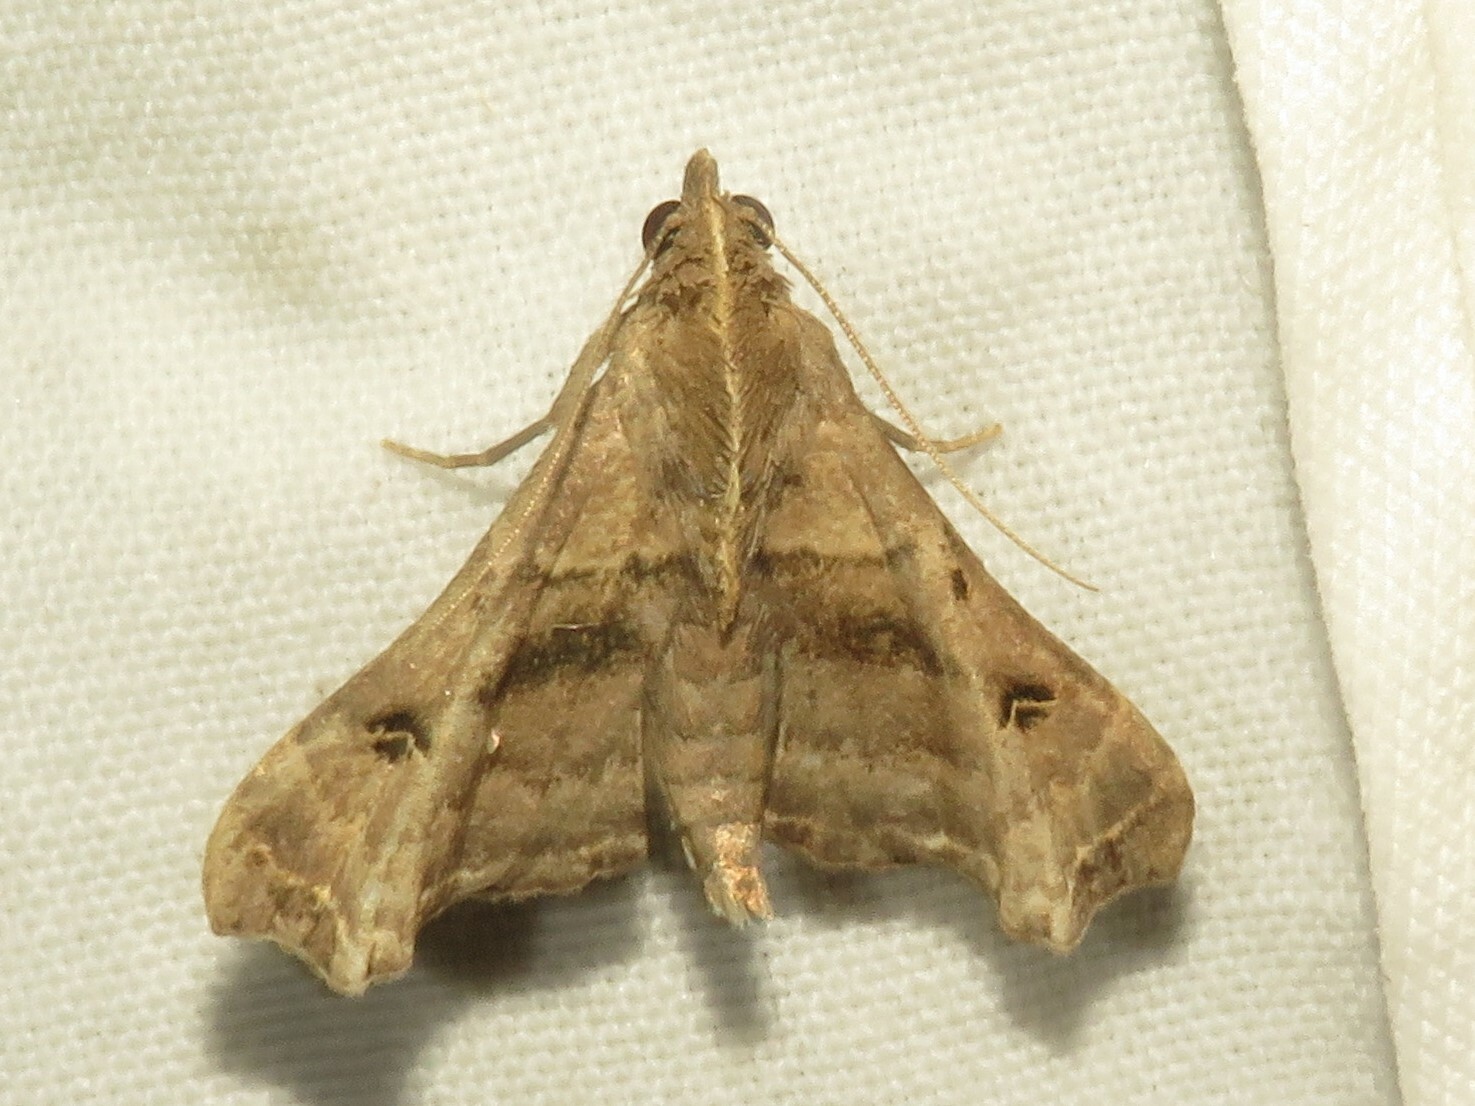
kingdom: Animalia
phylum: Arthropoda
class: Insecta
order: Lepidoptera
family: Erebidae
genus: Palthis
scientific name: Palthis asopialis
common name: Faint-spotted palthis moth
